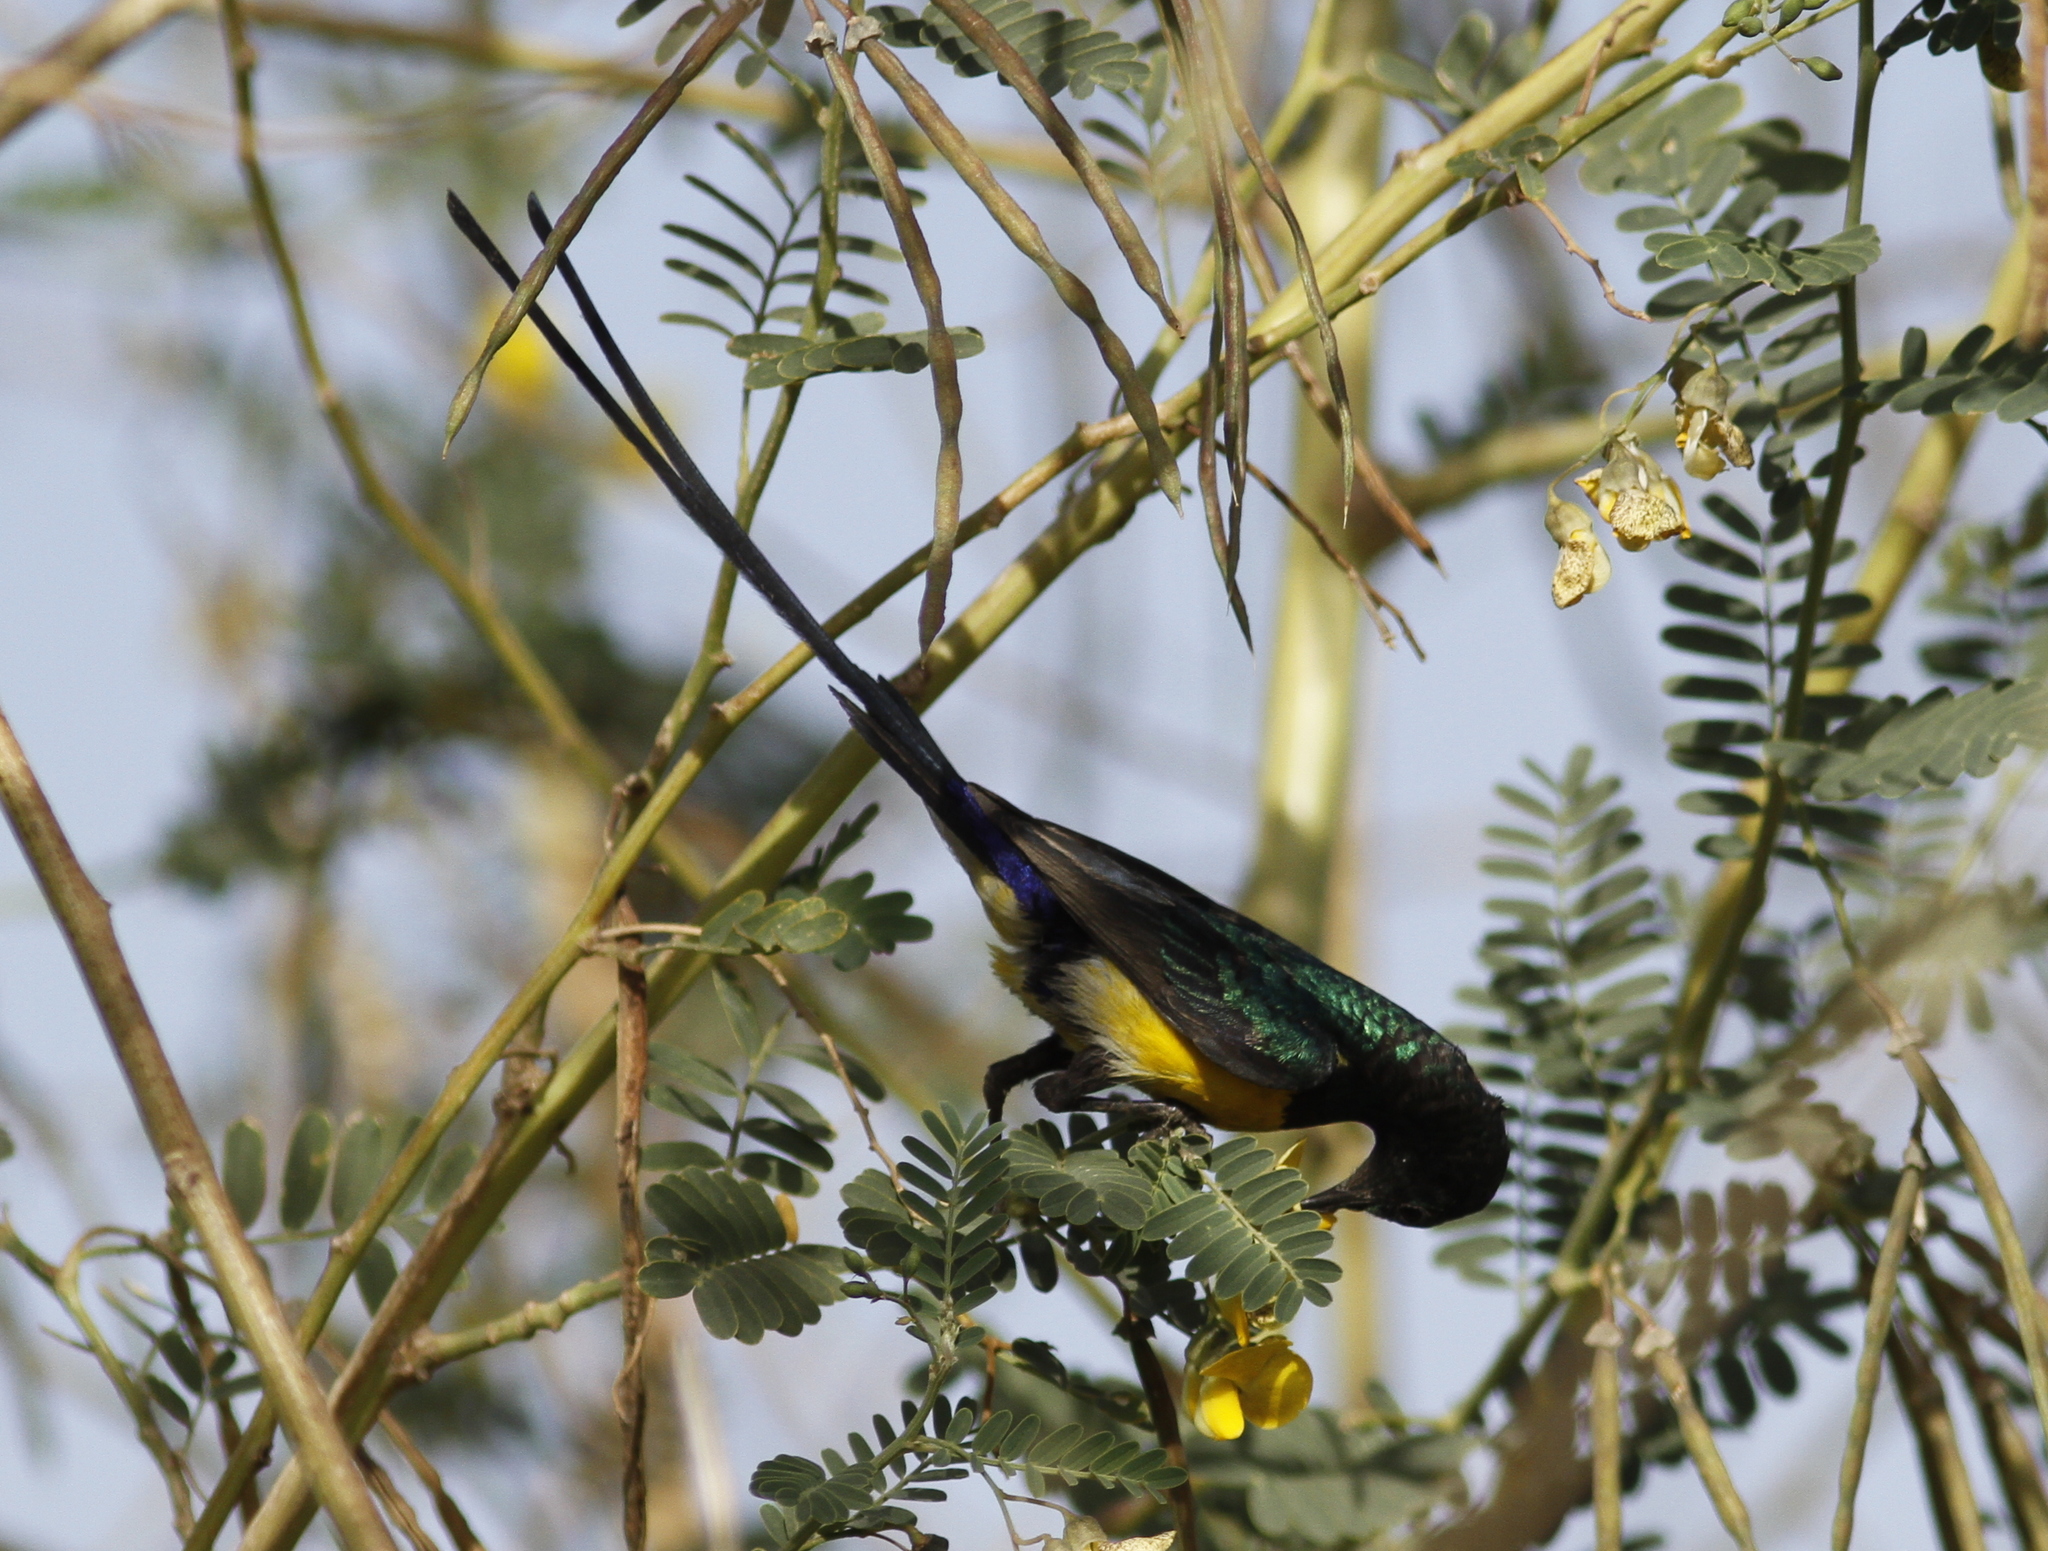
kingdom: Animalia
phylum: Chordata
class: Aves
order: Passeriformes
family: Nectariniidae
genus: Hedydipna
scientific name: Hedydipna metallica
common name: Nile valley sunbird
